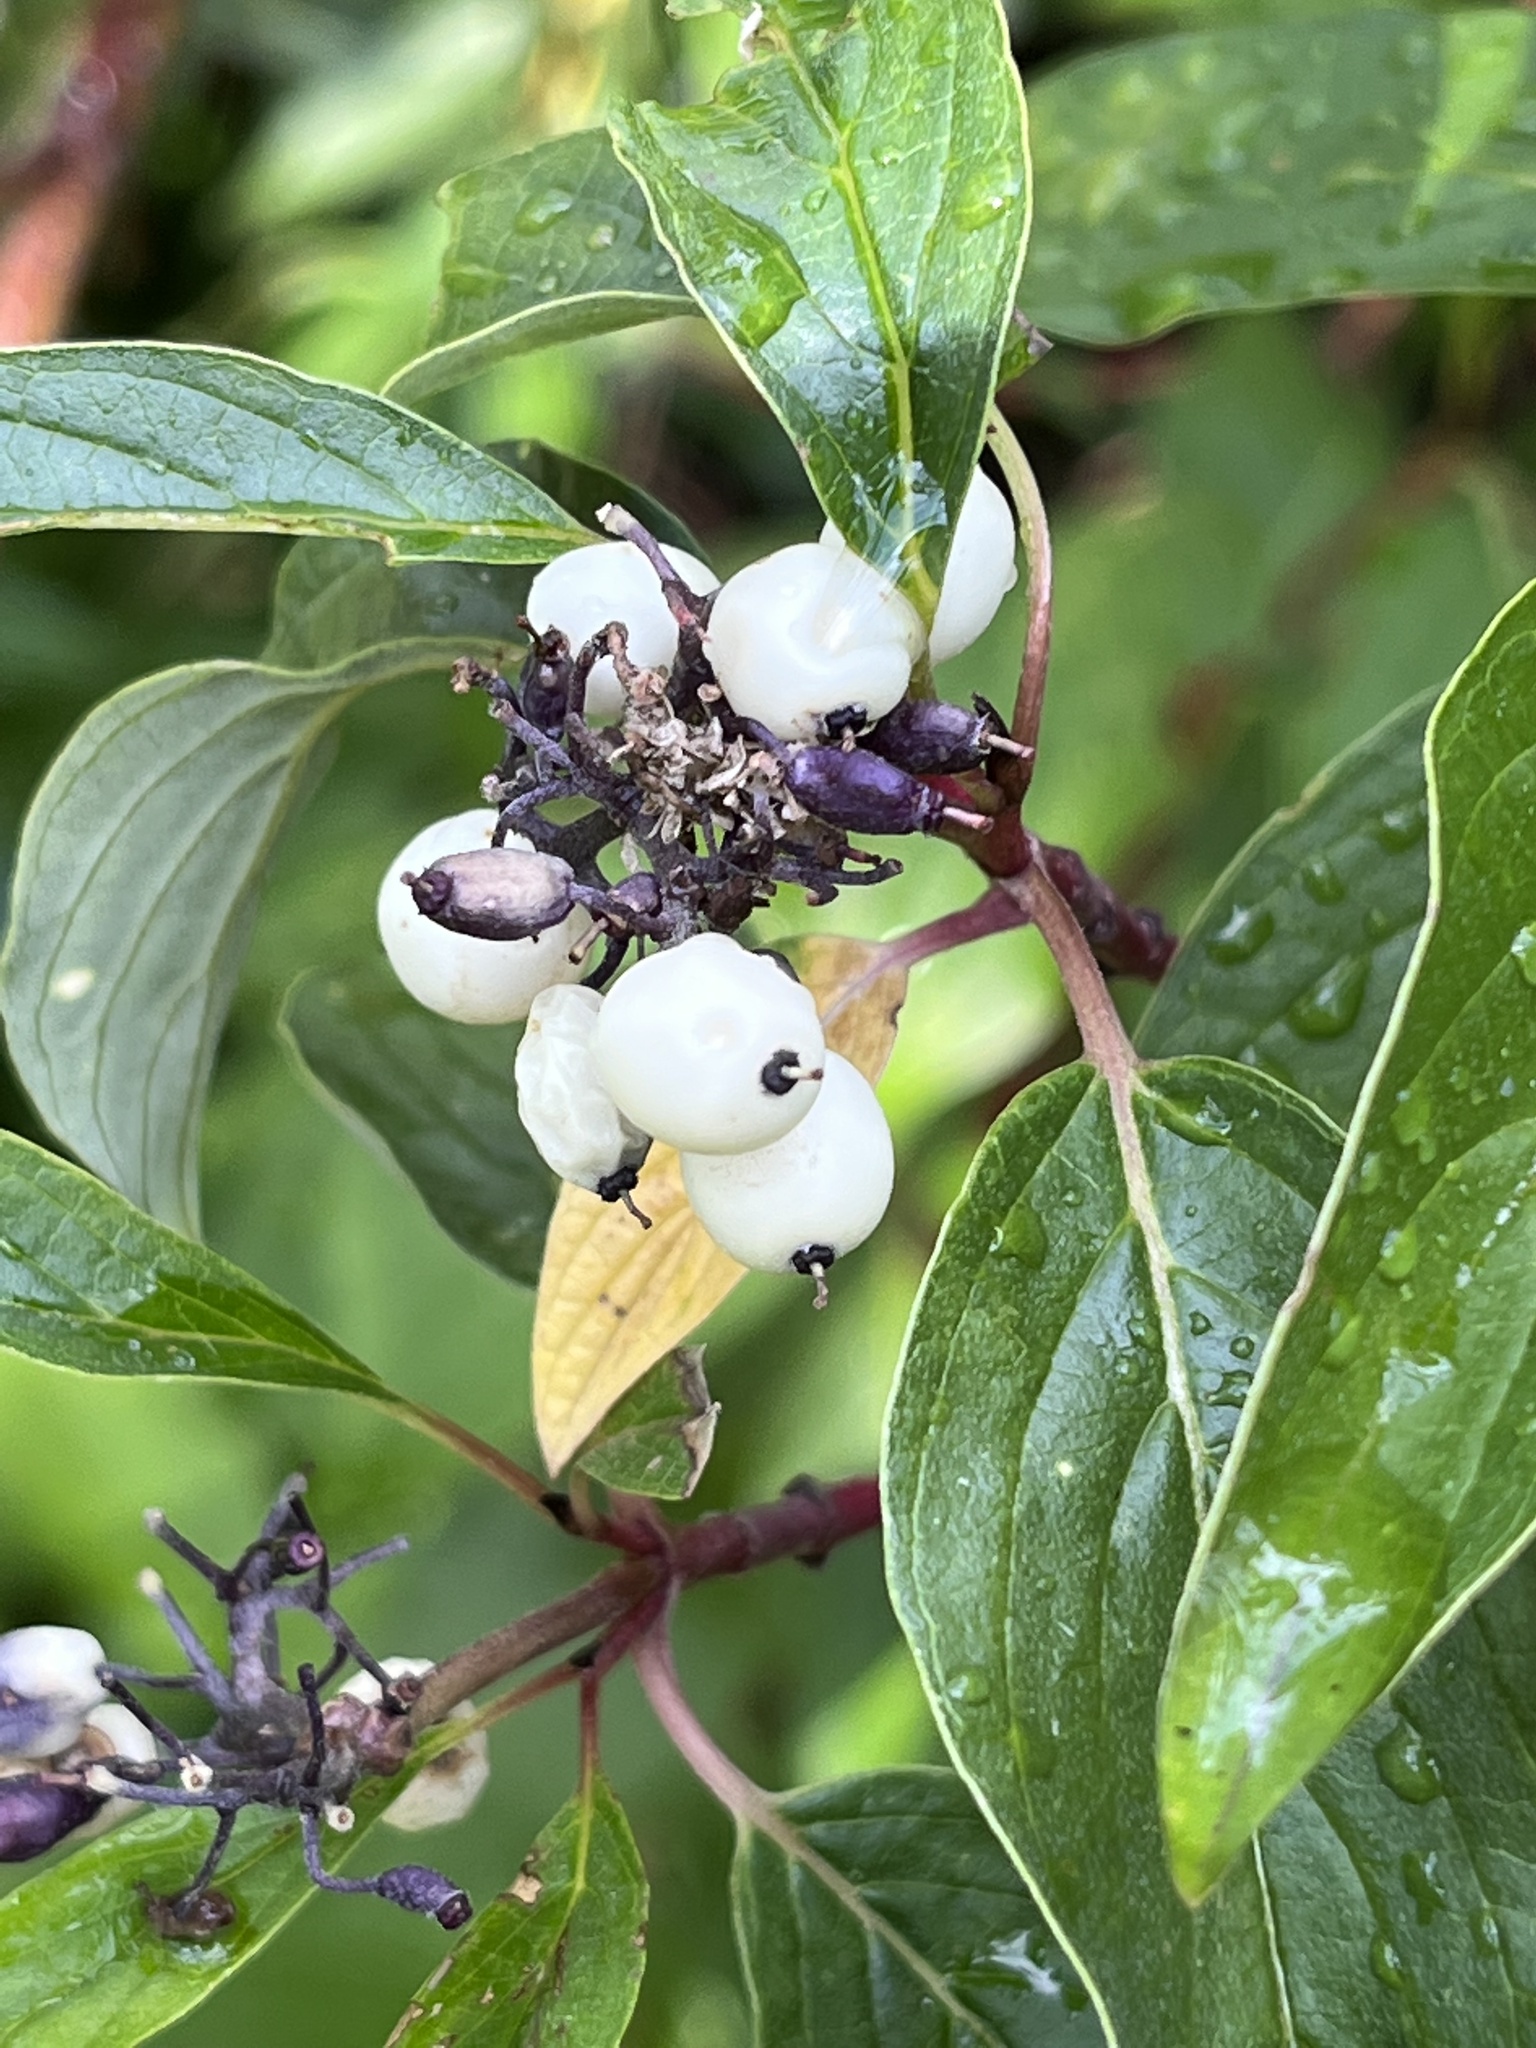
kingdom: Plantae
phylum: Tracheophyta
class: Magnoliopsida
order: Cornales
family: Cornaceae
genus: Cornus
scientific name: Cornus sericea
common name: Red-osier dogwood
